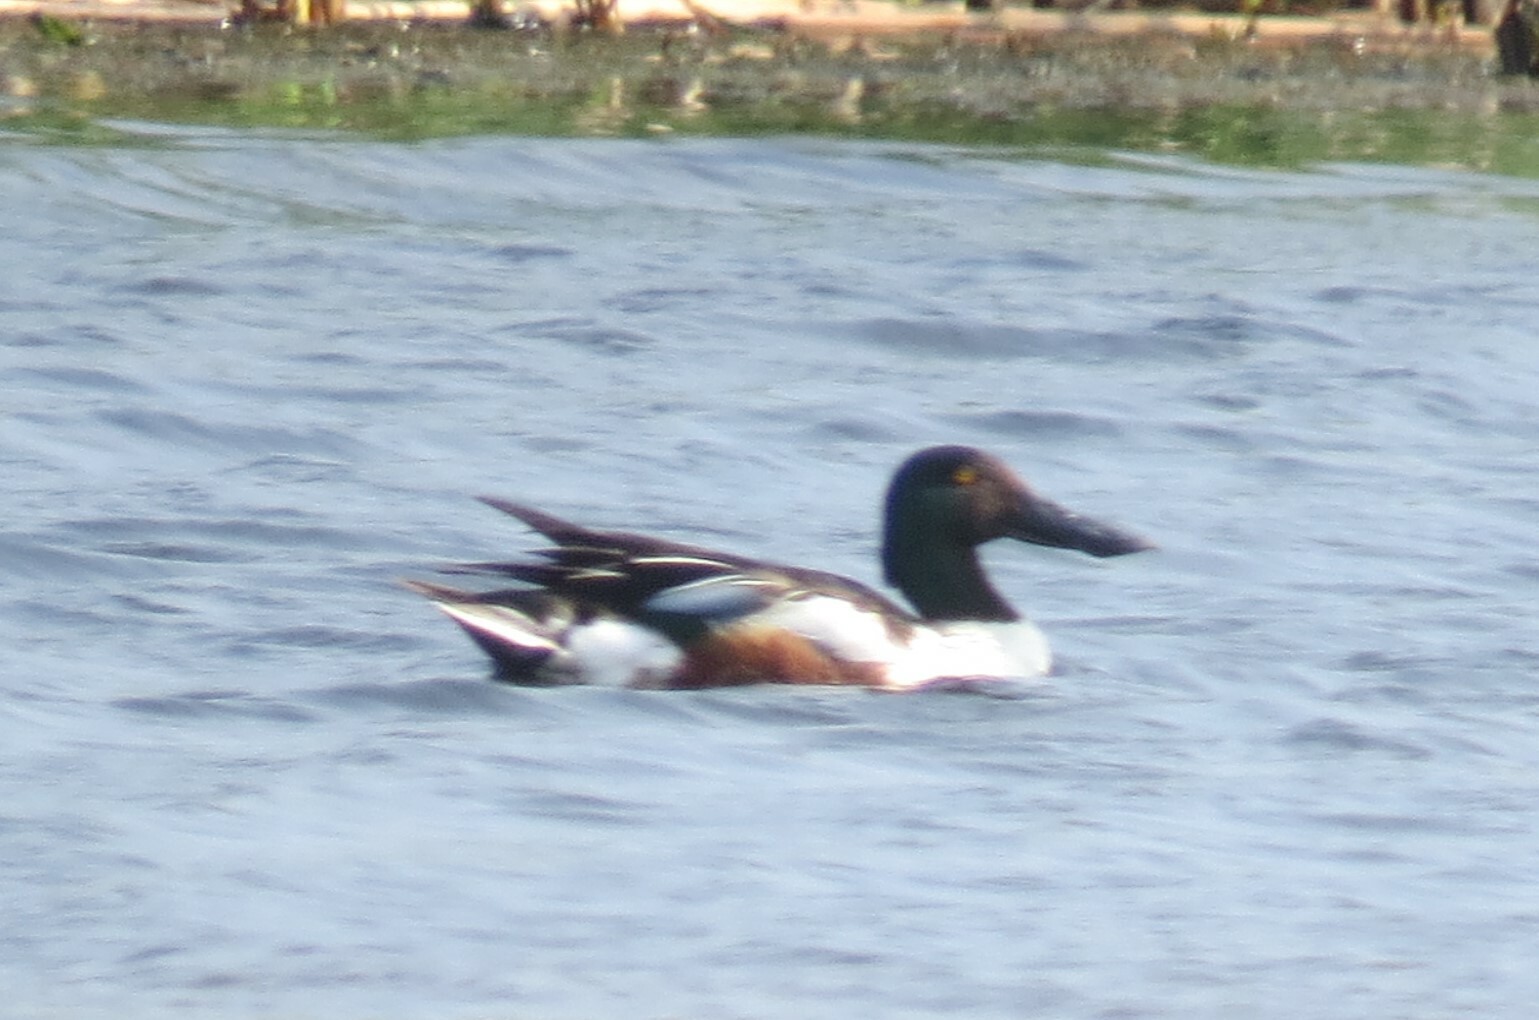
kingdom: Animalia
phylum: Chordata
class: Aves
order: Anseriformes
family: Anatidae
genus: Spatula
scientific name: Spatula clypeata
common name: Northern shoveler
